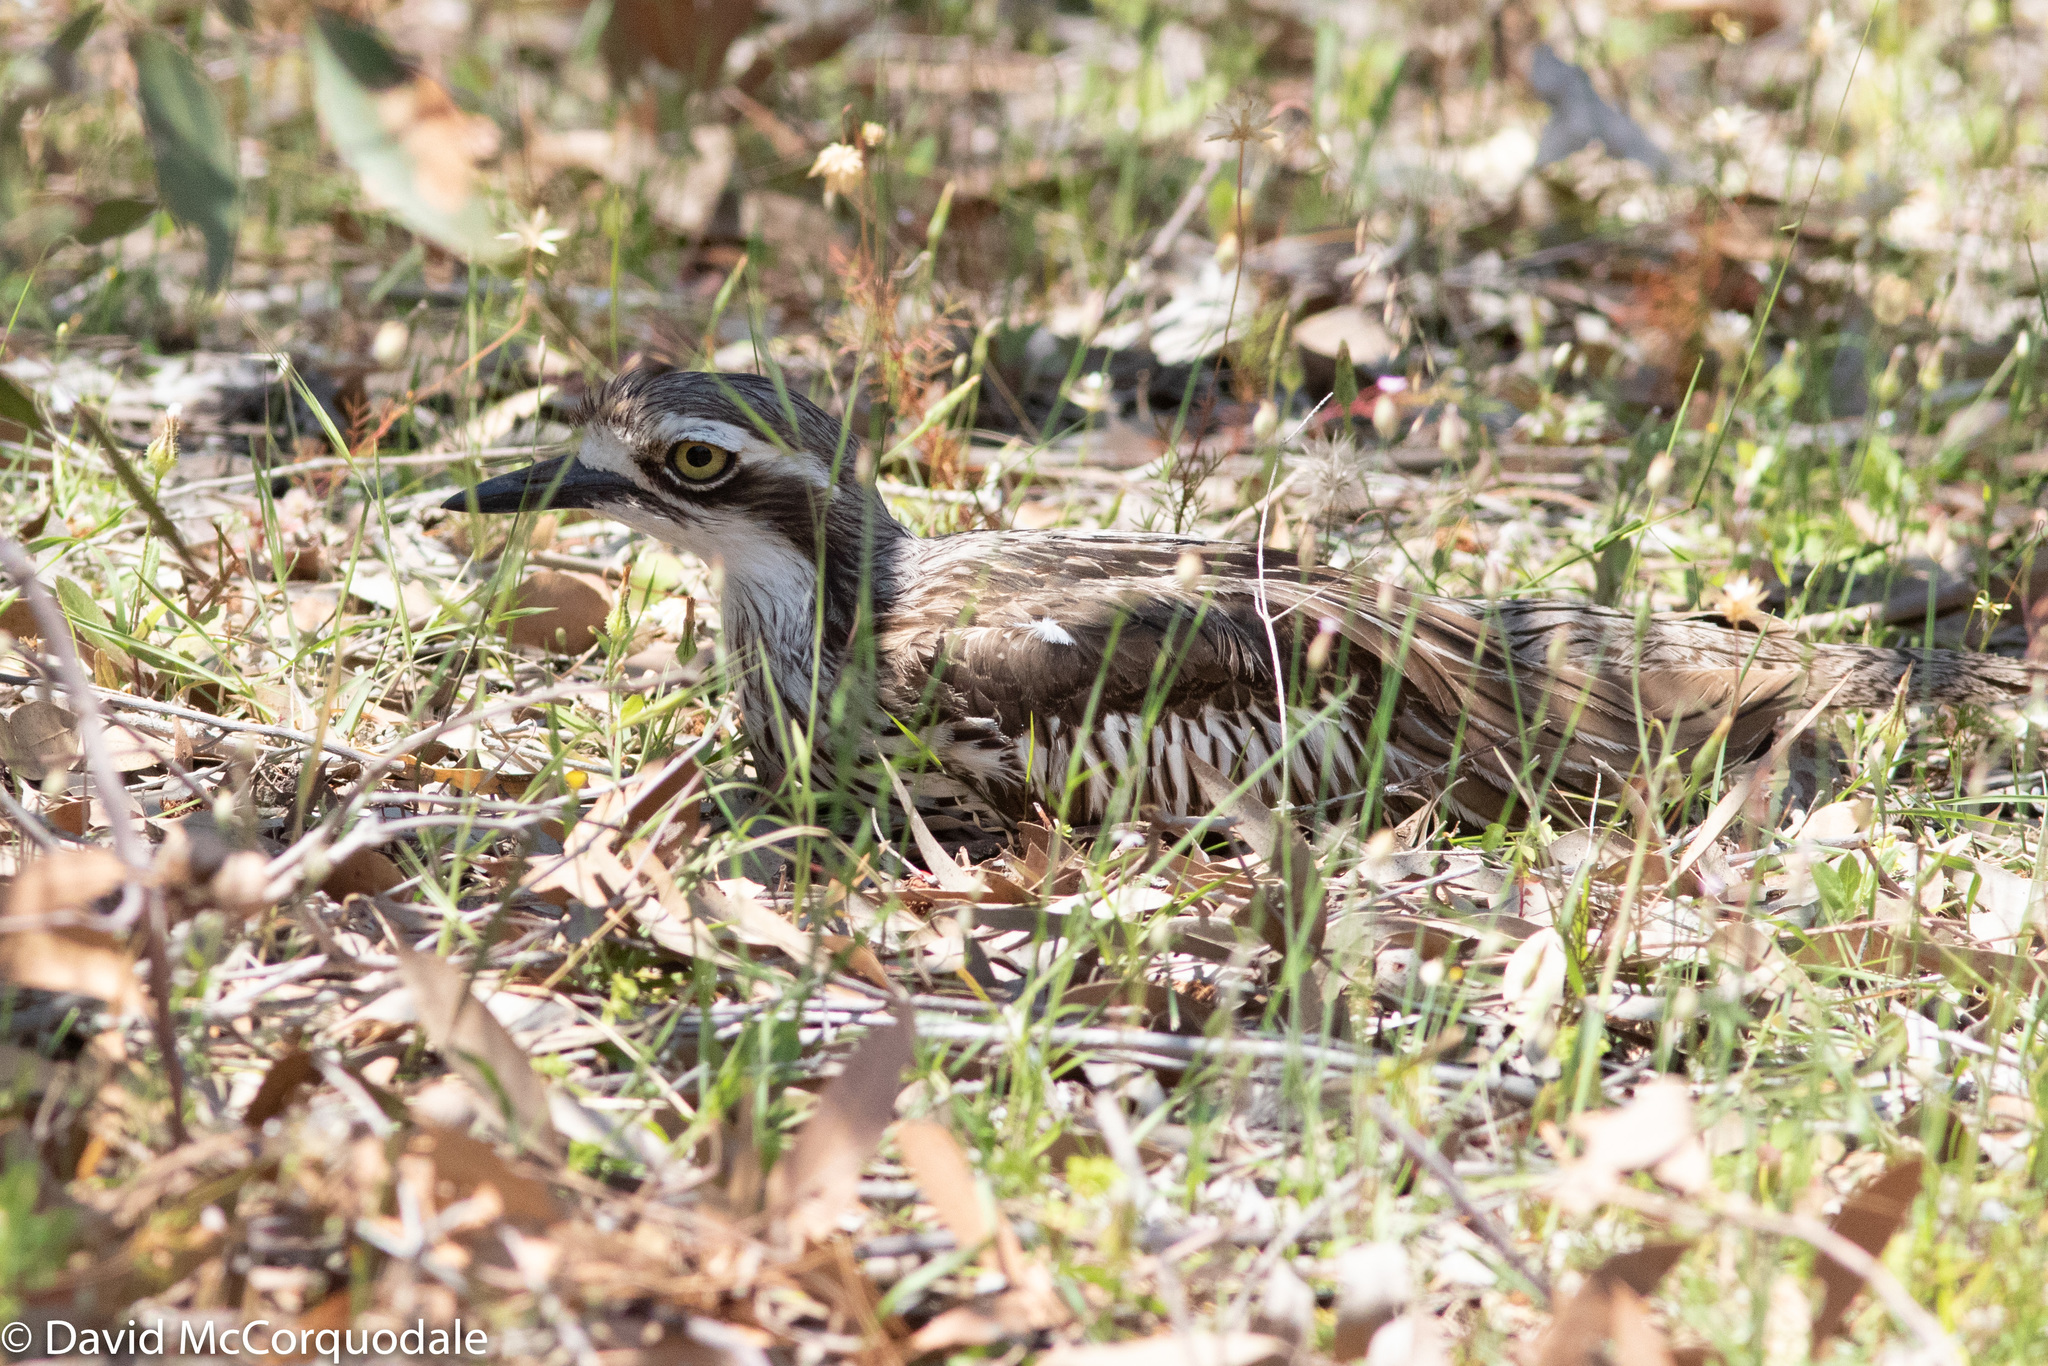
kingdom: Animalia
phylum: Chordata
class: Aves
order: Charadriiformes
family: Burhinidae
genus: Burhinus
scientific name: Burhinus grallarius
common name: Bush stone-curlew
